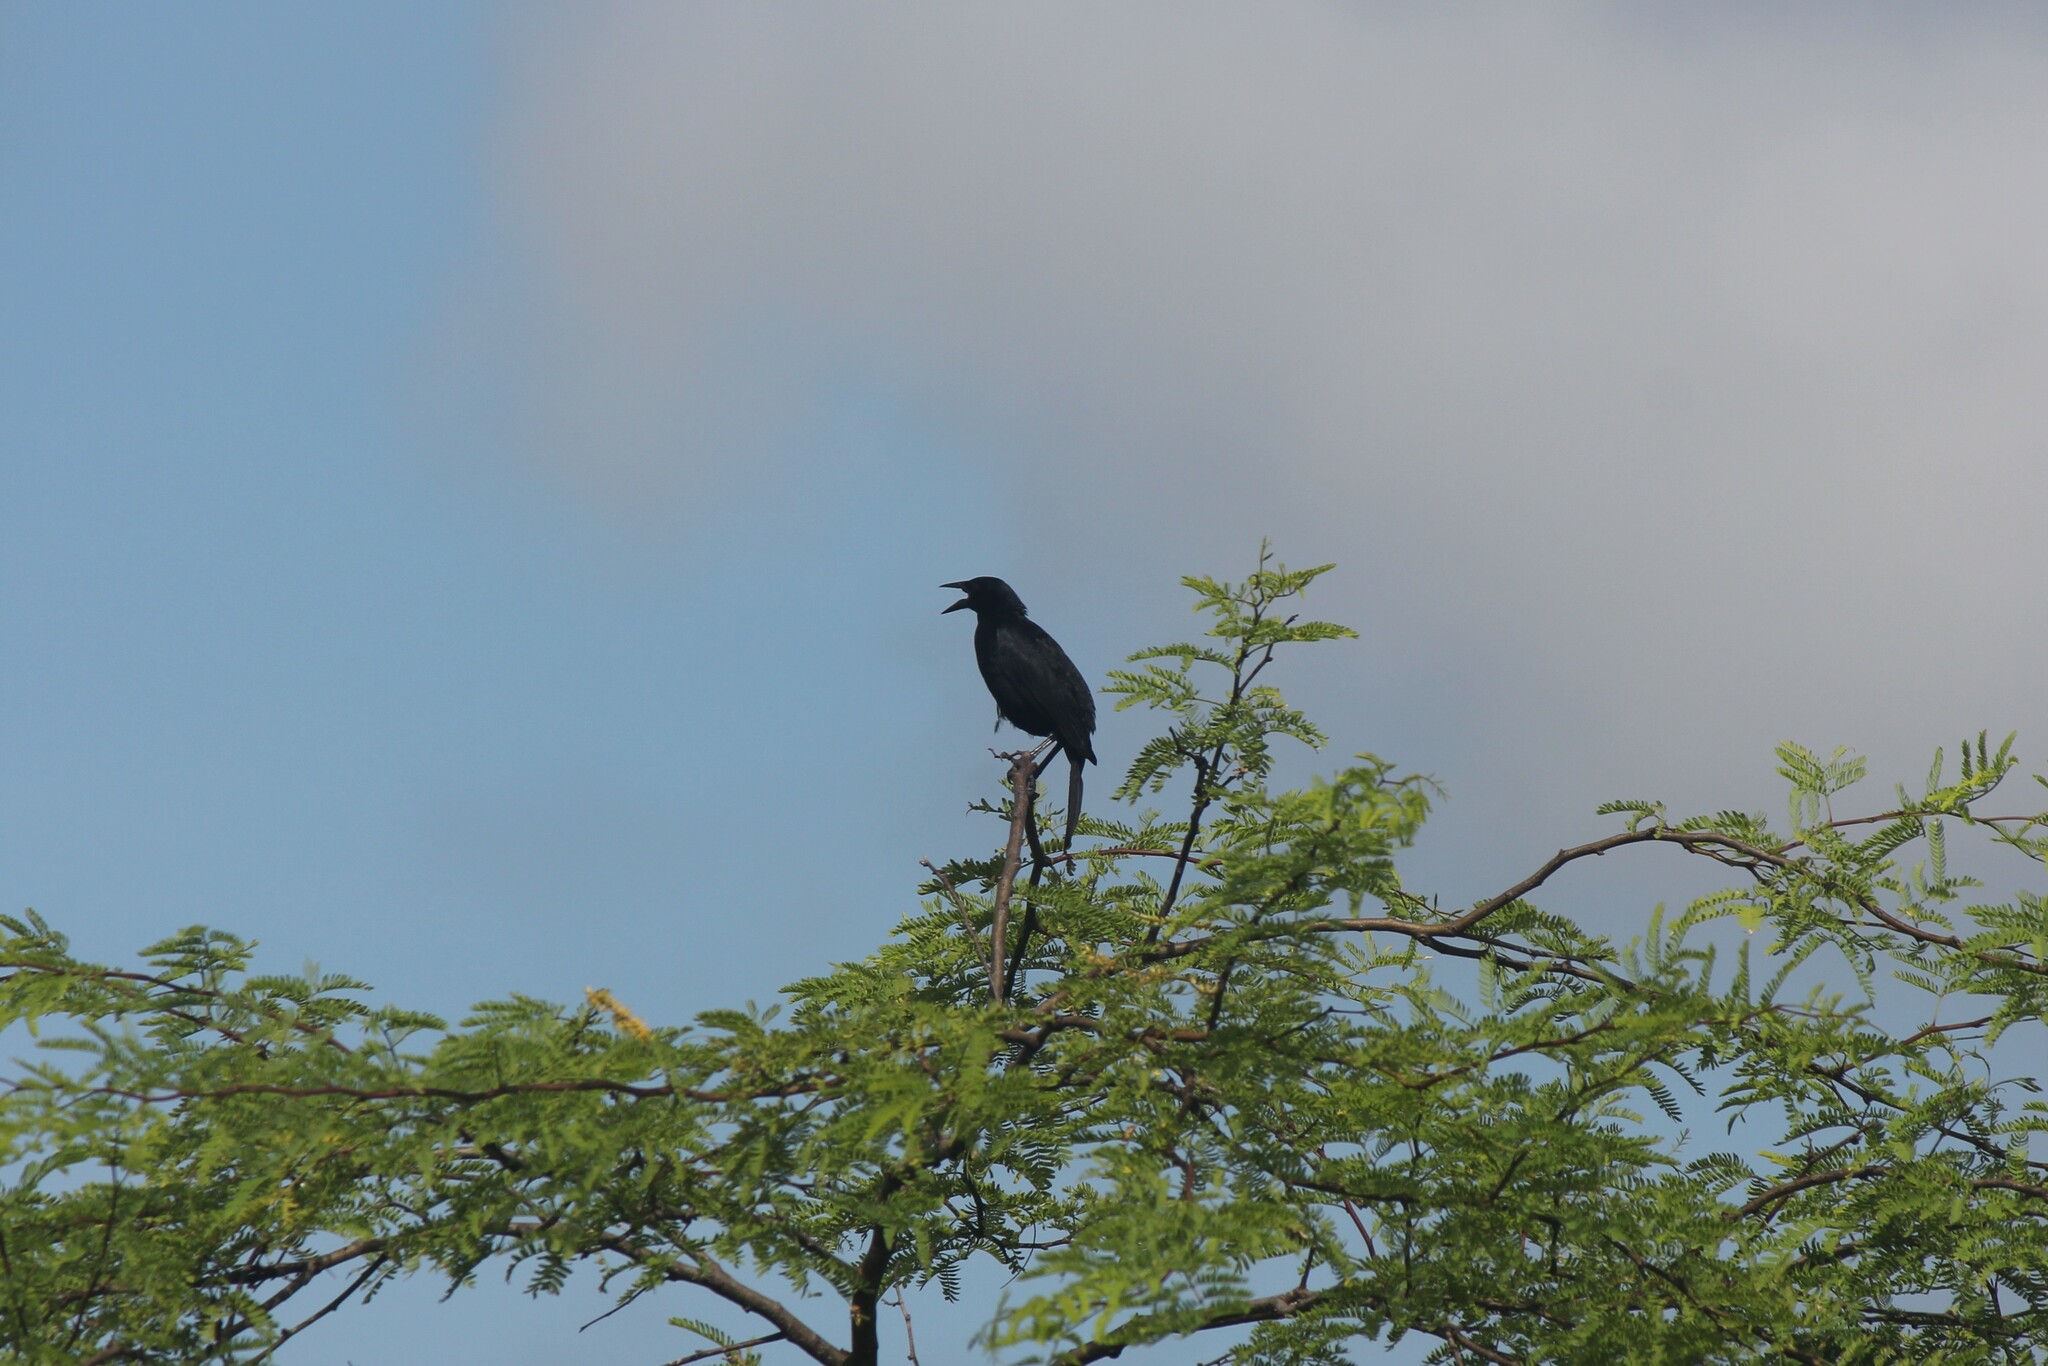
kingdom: Animalia
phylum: Chordata
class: Aves
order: Passeriformes
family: Icteridae
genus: Dives
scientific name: Dives warczewiczi
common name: Scrub blackbird
